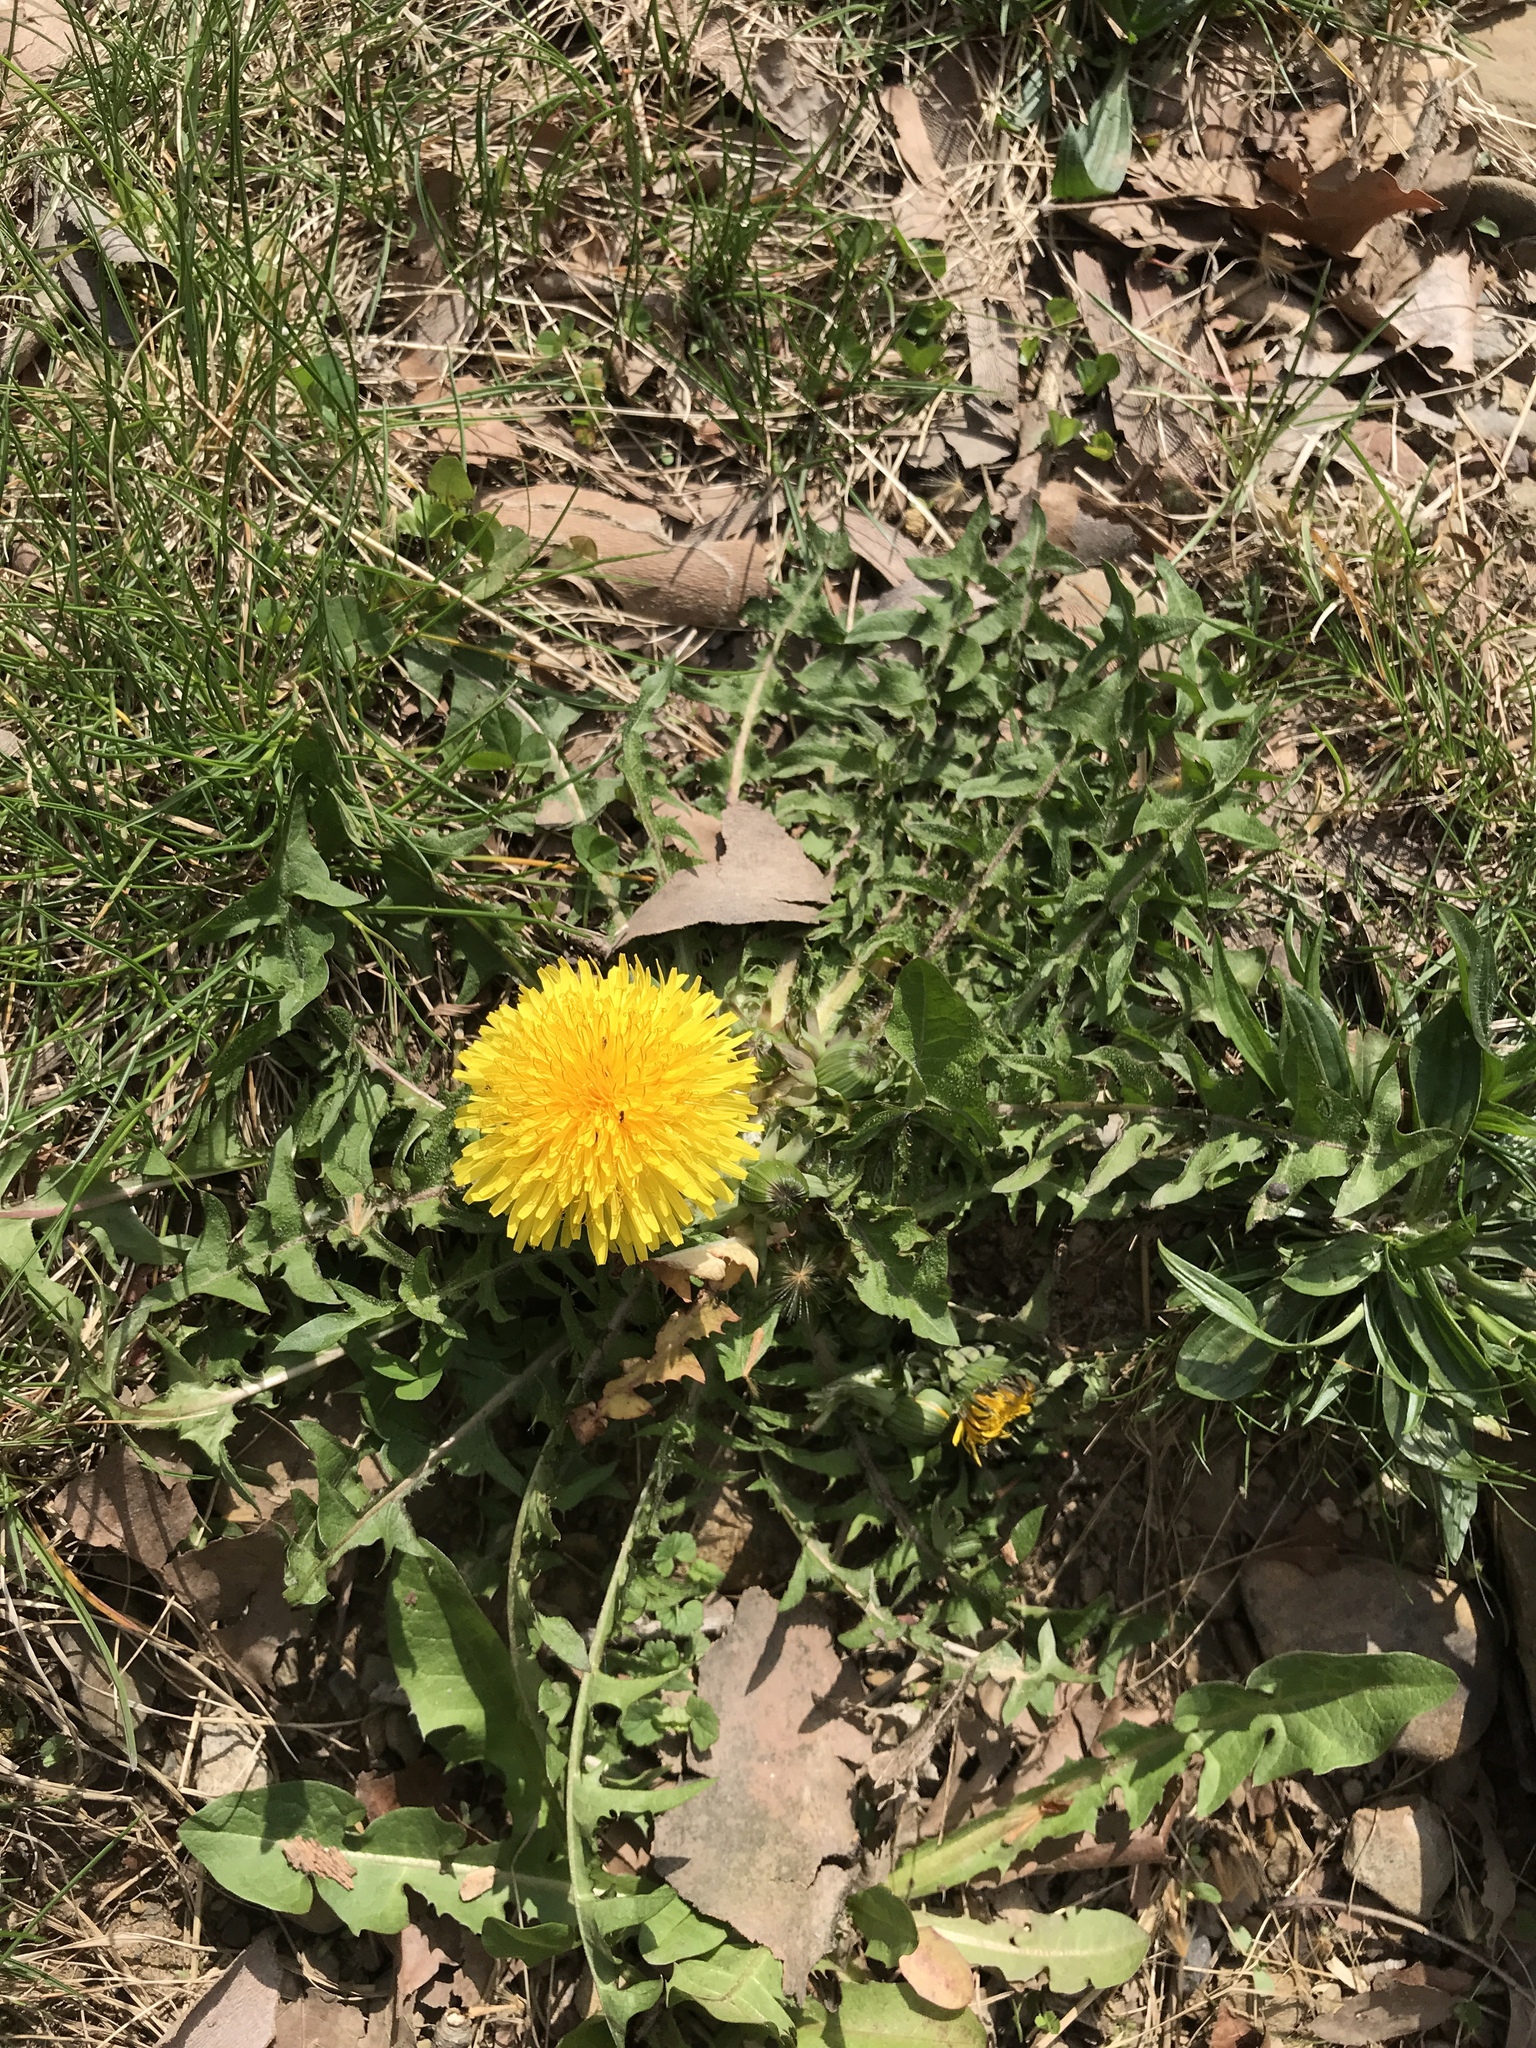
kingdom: Plantae
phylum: Tracheophyta
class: Magnoliopsida
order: Asterales
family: Asteraceae
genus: Taraxacum
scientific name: Taraxacum officinale
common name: Common dandelion
